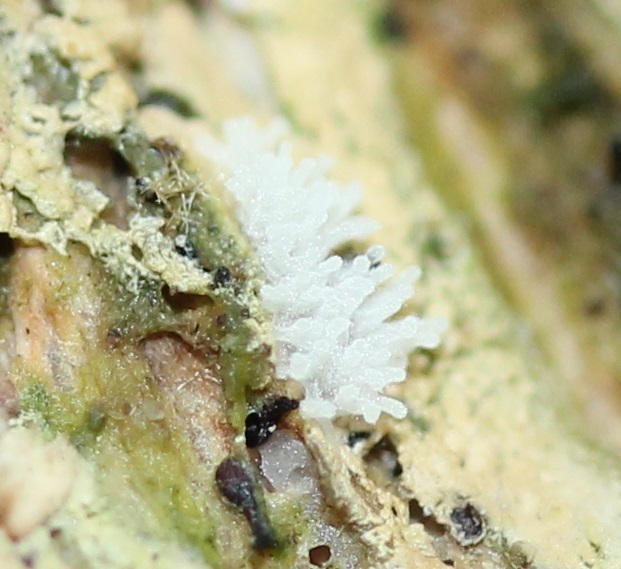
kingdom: Protozoa
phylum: Mycetozoa
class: Protosteliomycetes
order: Ceratiomyxales
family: Ceratiomyxaceae
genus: Ceratiomyxa
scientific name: Ceratiomyxa fruticulosa
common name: Honeycomb coral slime mold
